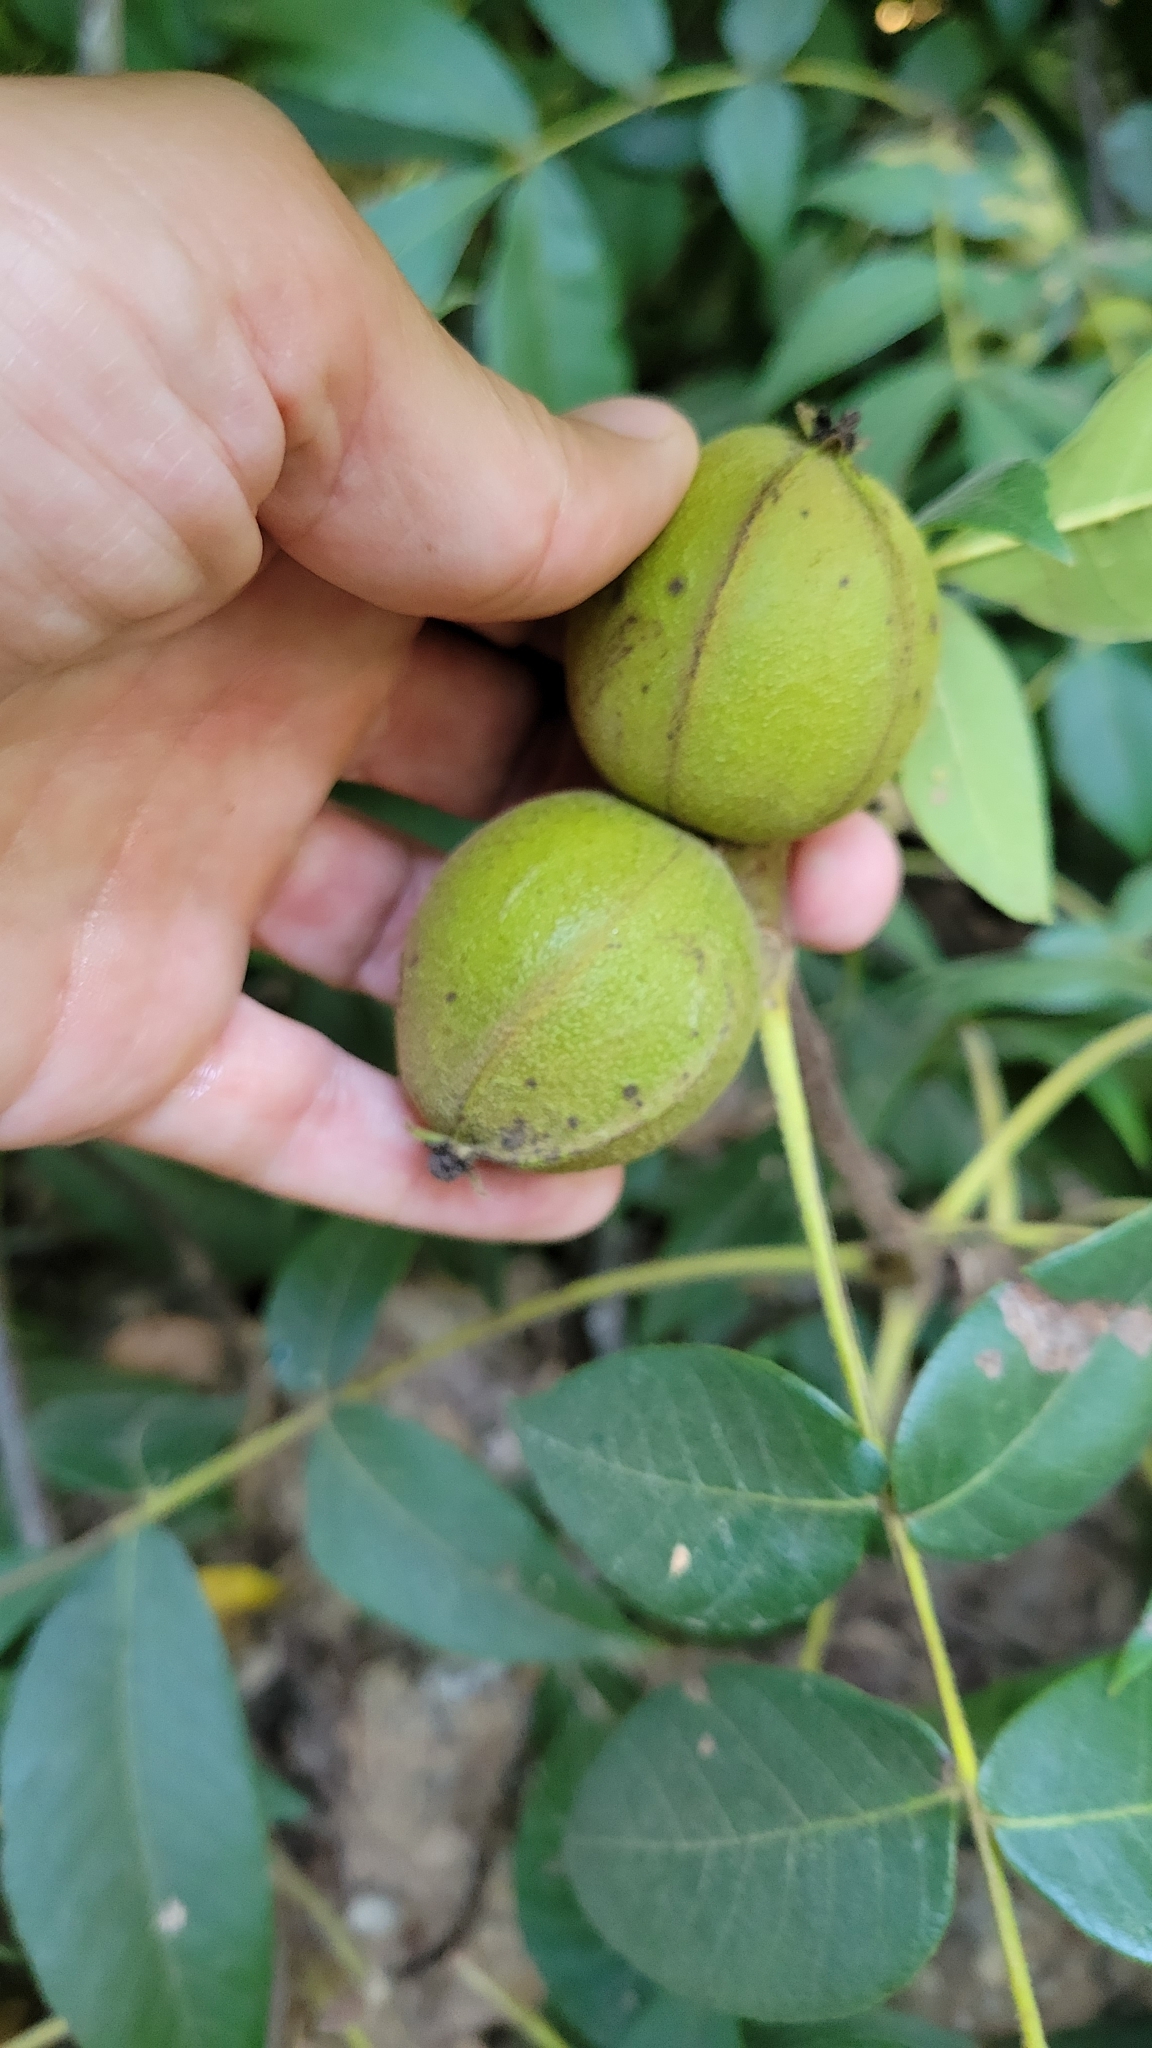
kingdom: Plantae
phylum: Tracheophyta
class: Magnoliopsida
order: Fagales
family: Juglandaceae
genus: Carya
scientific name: Carya alba
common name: Mockernut hickory
